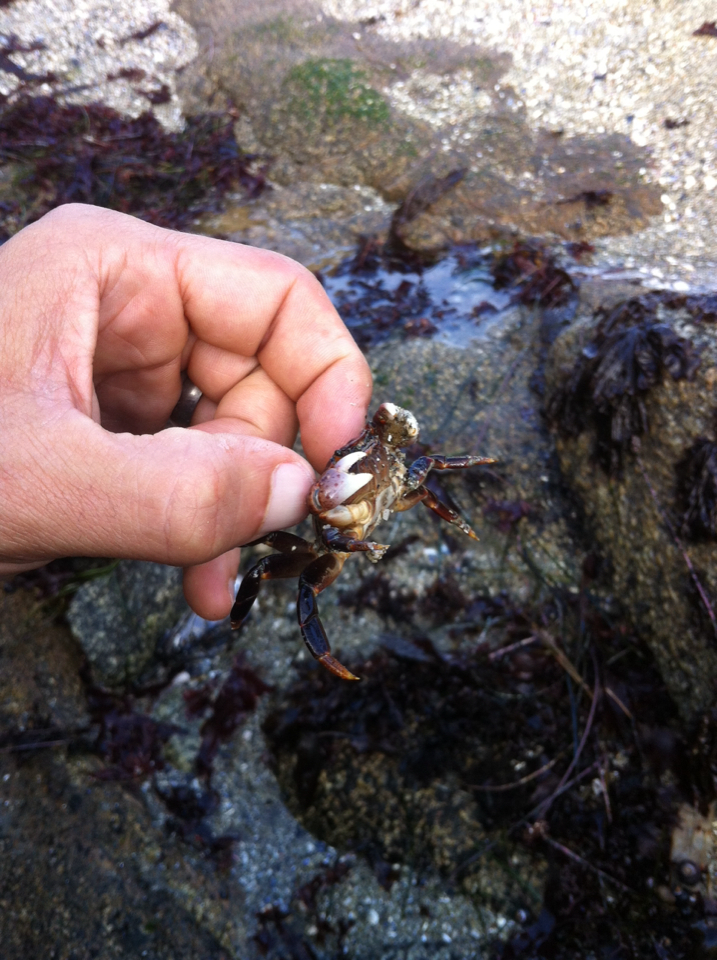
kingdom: Animalia
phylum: Arthropoda
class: Malacostraca
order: Decapoda
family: Varunidae
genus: Hemigrapsus
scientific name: Hemigrapsus nudus
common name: Purple shore crab
